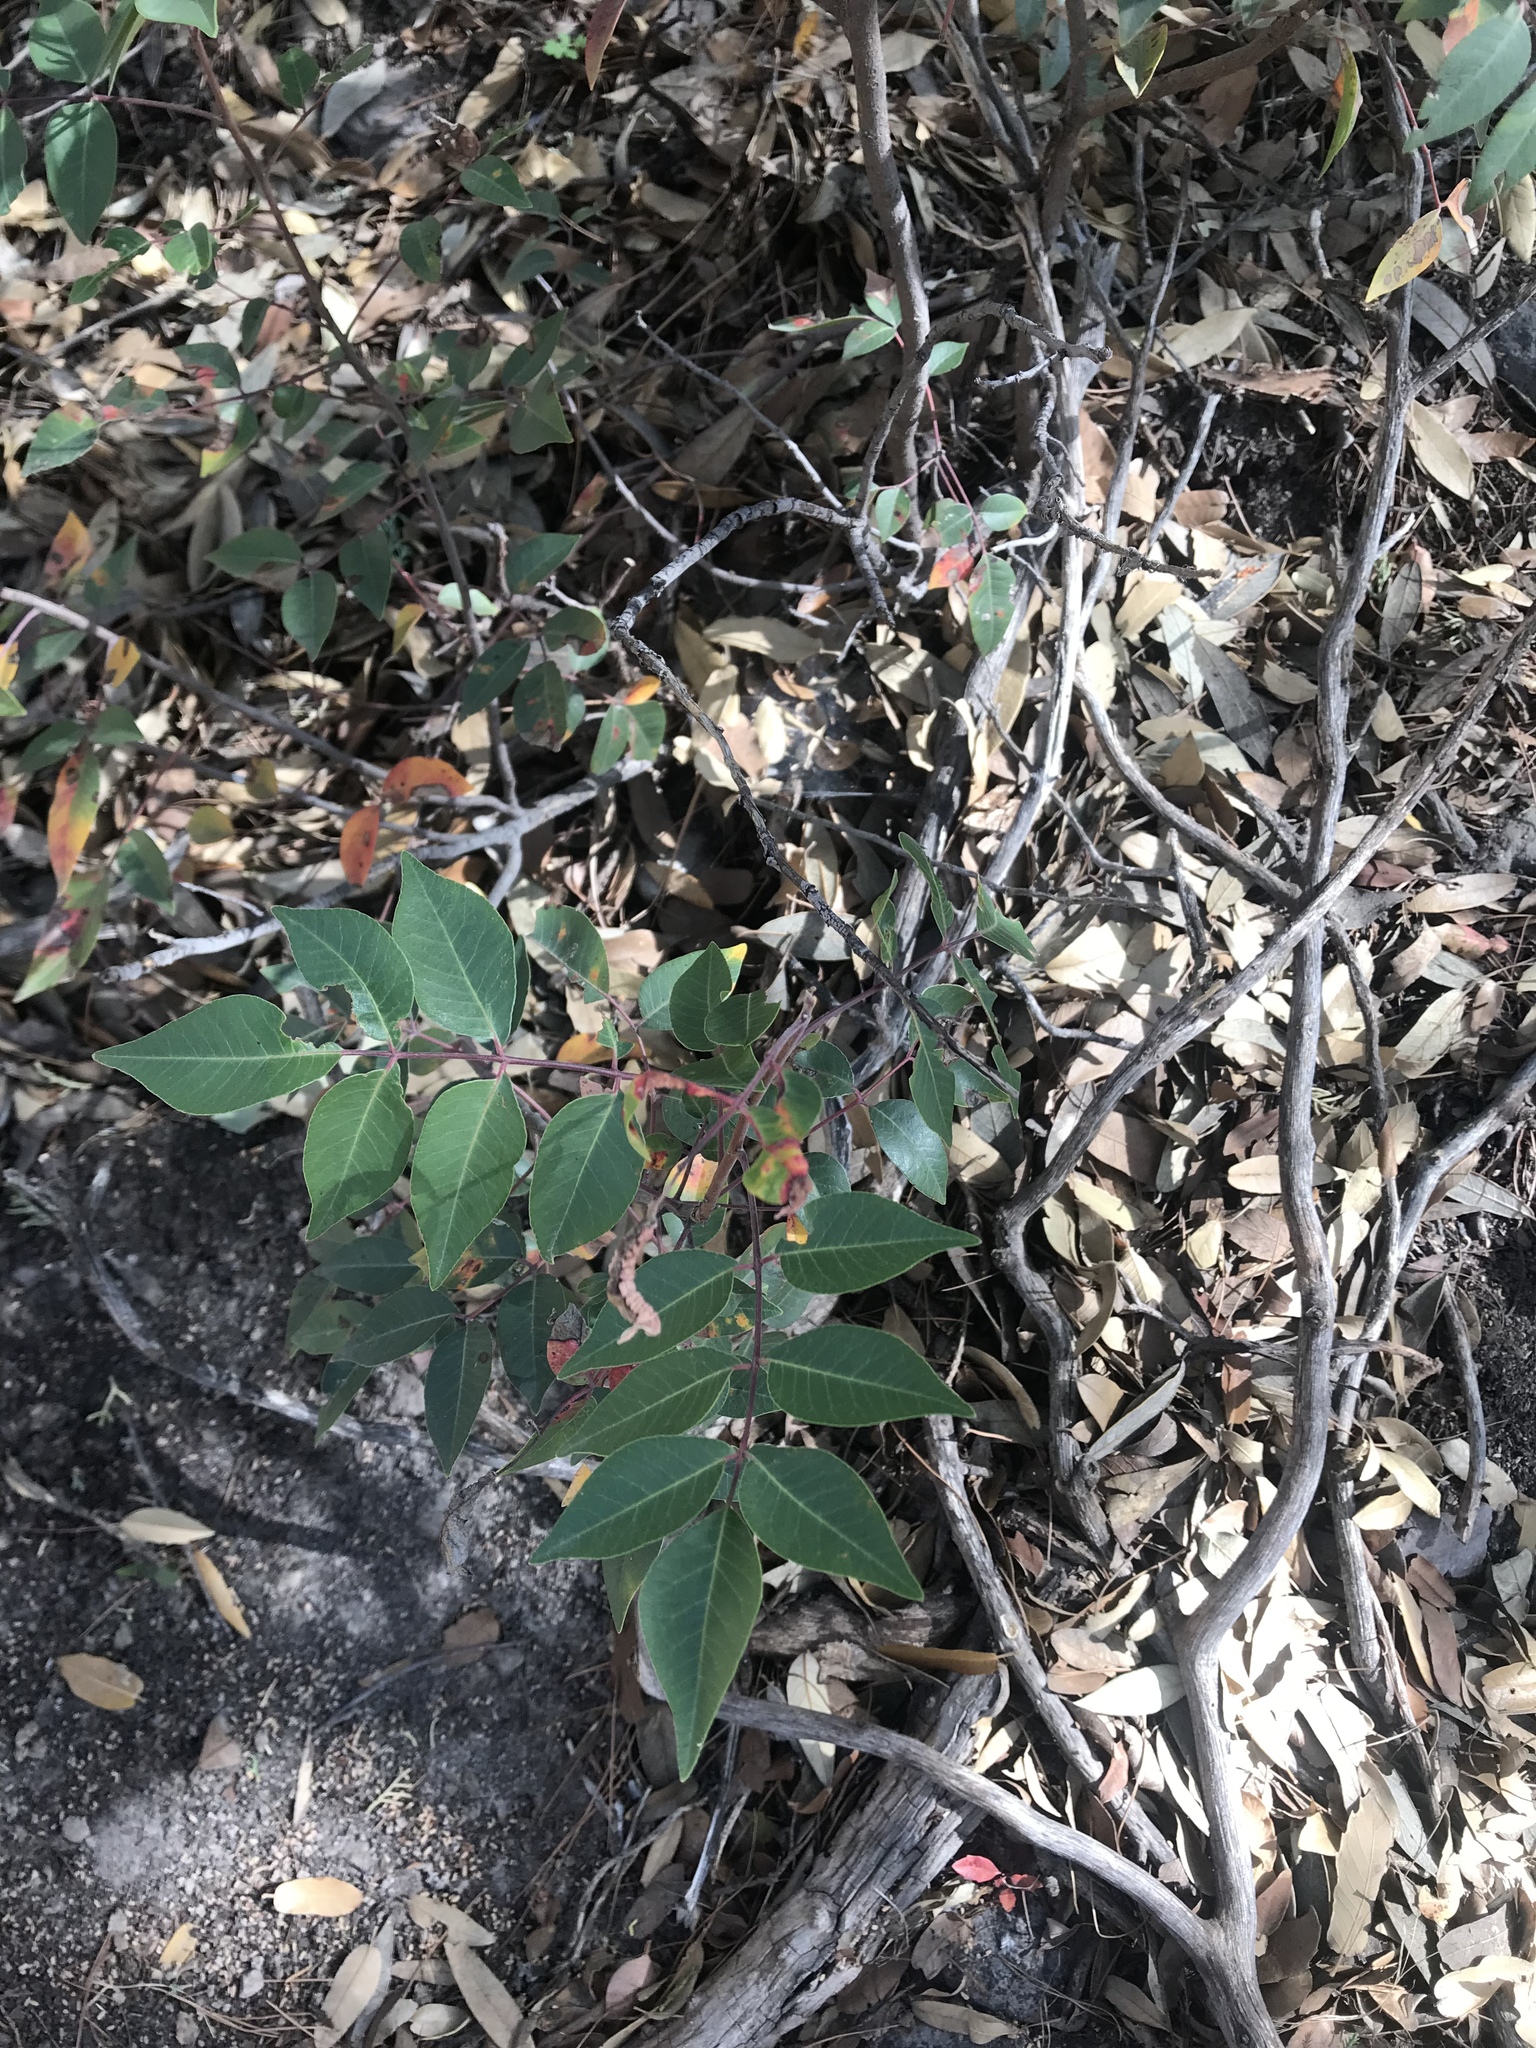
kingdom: Plantae
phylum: Tracheophyta
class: Magnoliopsida
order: Sapindales
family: Anacardiaceae
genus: Rhus
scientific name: Rhus virens
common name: Evergreen sumac
